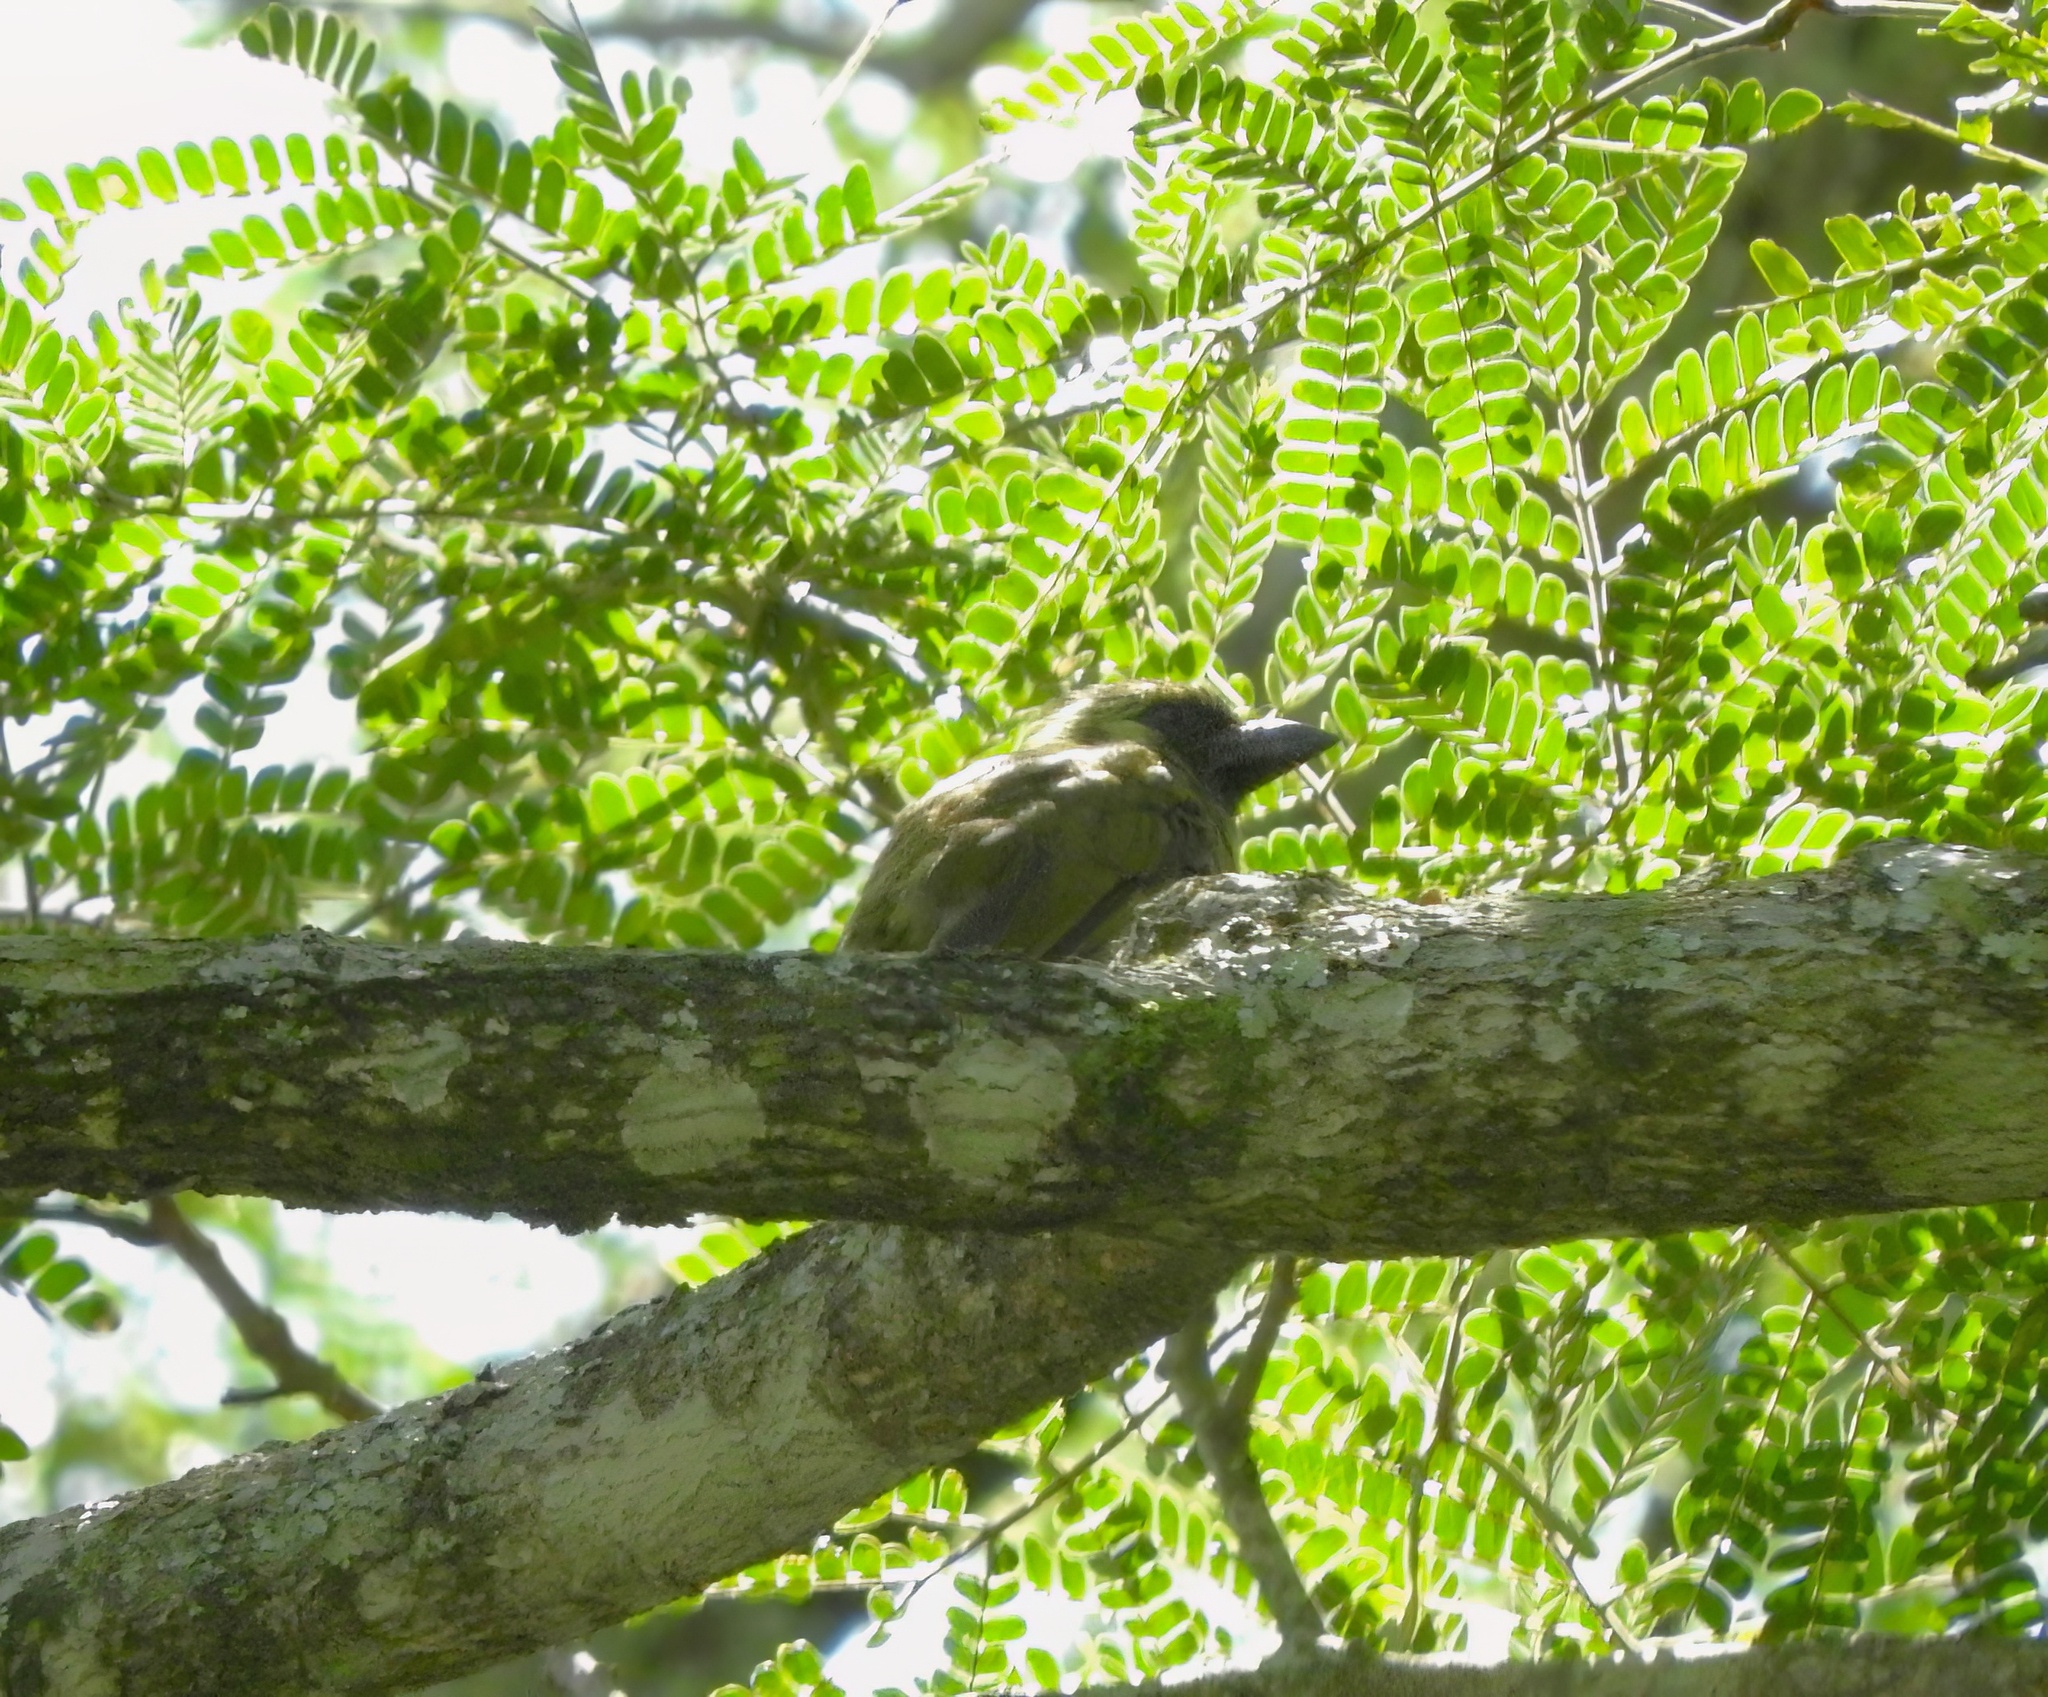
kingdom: Animalia
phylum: Chordata
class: Aves
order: Piciformes
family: Lybiidae
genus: Stactolaema
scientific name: Stactolaema olivacea
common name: Green barbet
